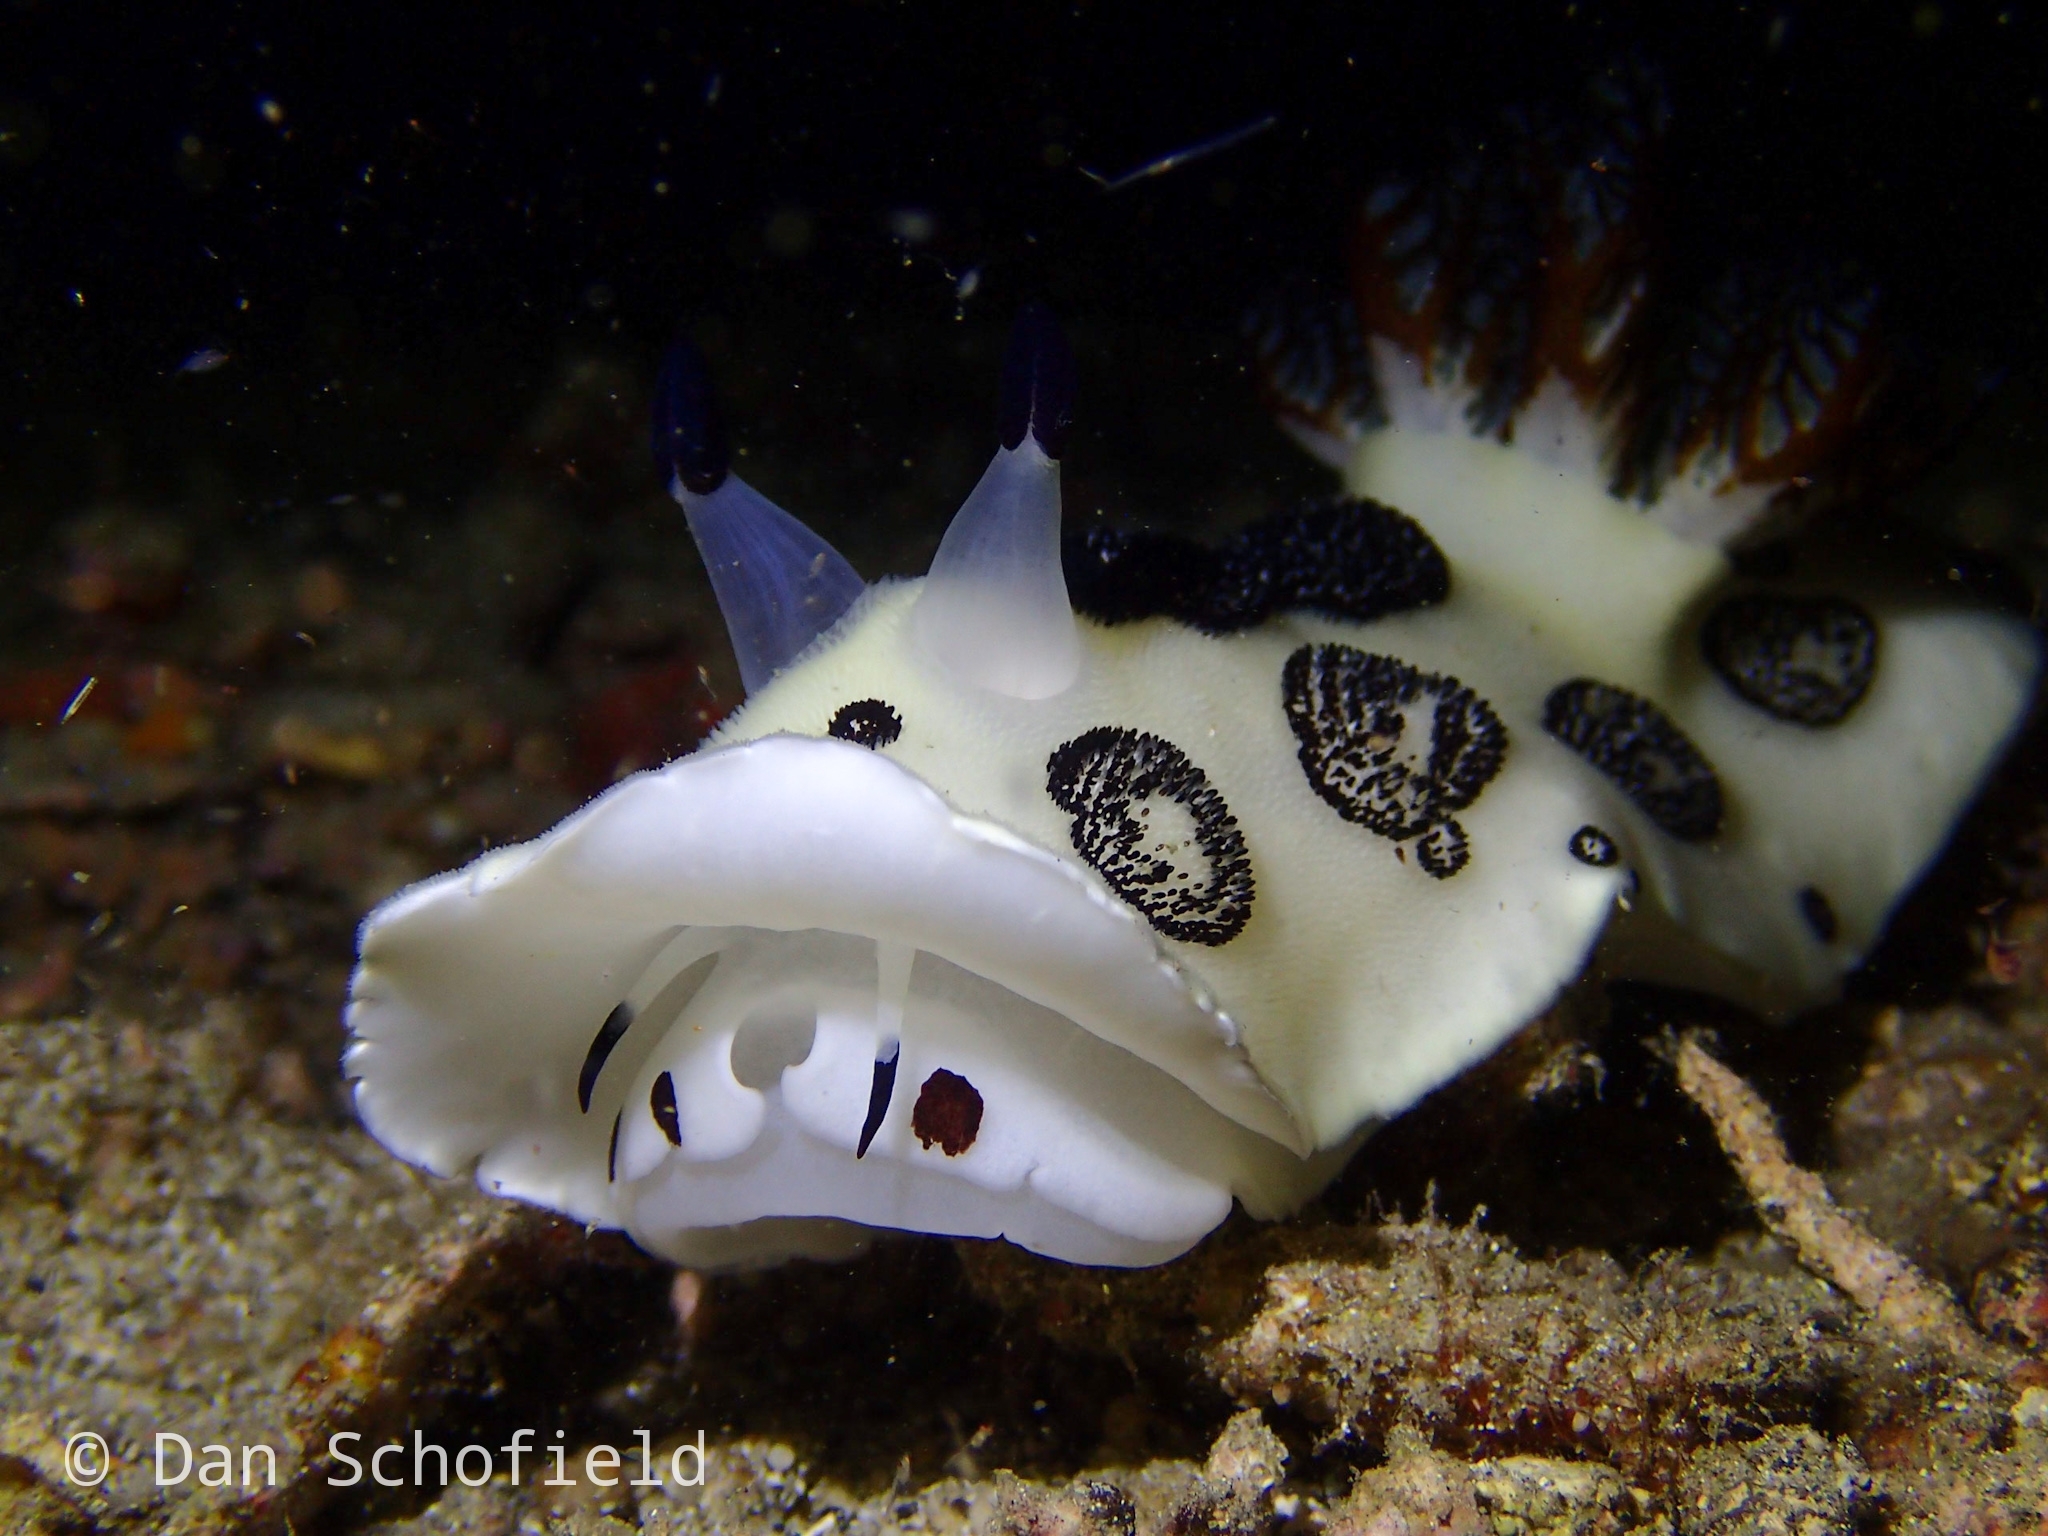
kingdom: Animalia
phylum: Mollusca
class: Gastropoda
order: Nudibranchia
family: Discodorididae
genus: Jorunna
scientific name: Jorunna funebris
